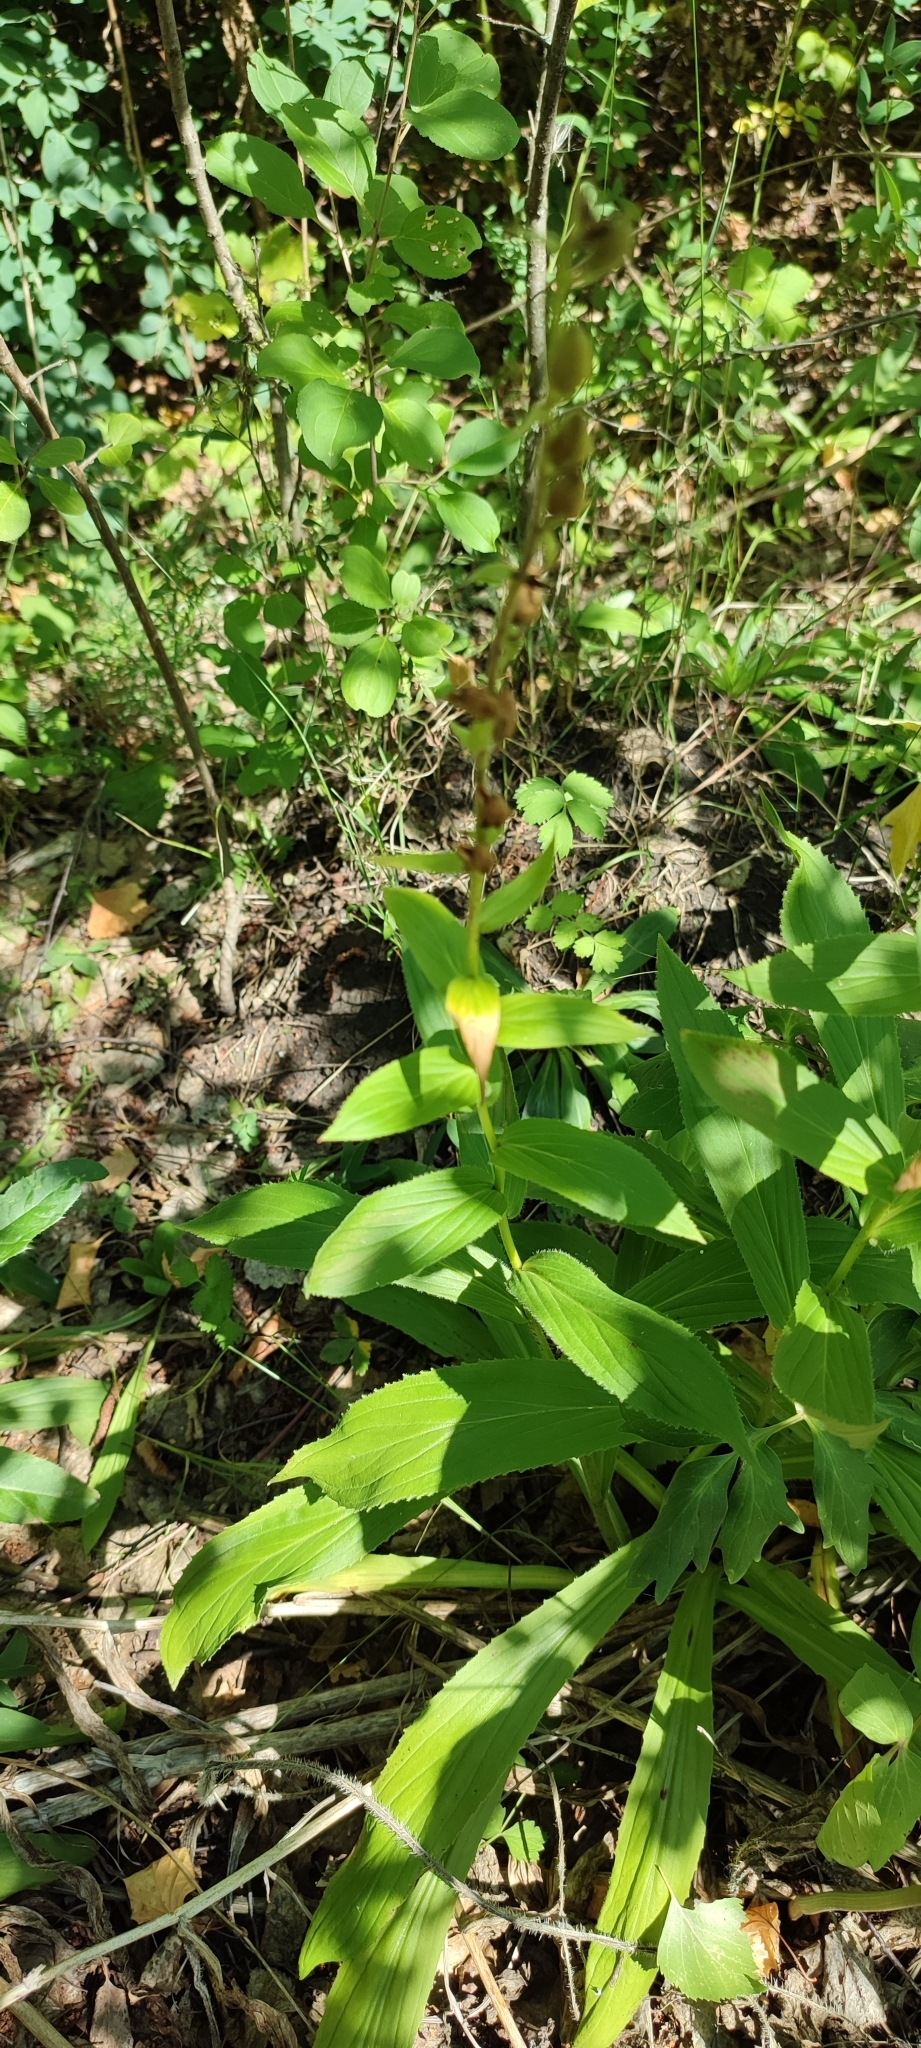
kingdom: Plantae
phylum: Tracheophyta
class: Magnoliopsida
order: Lamiales
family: Plantaginaceae
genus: Digitalis
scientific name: Digitalis grandiflora
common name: Yellow foxglove
